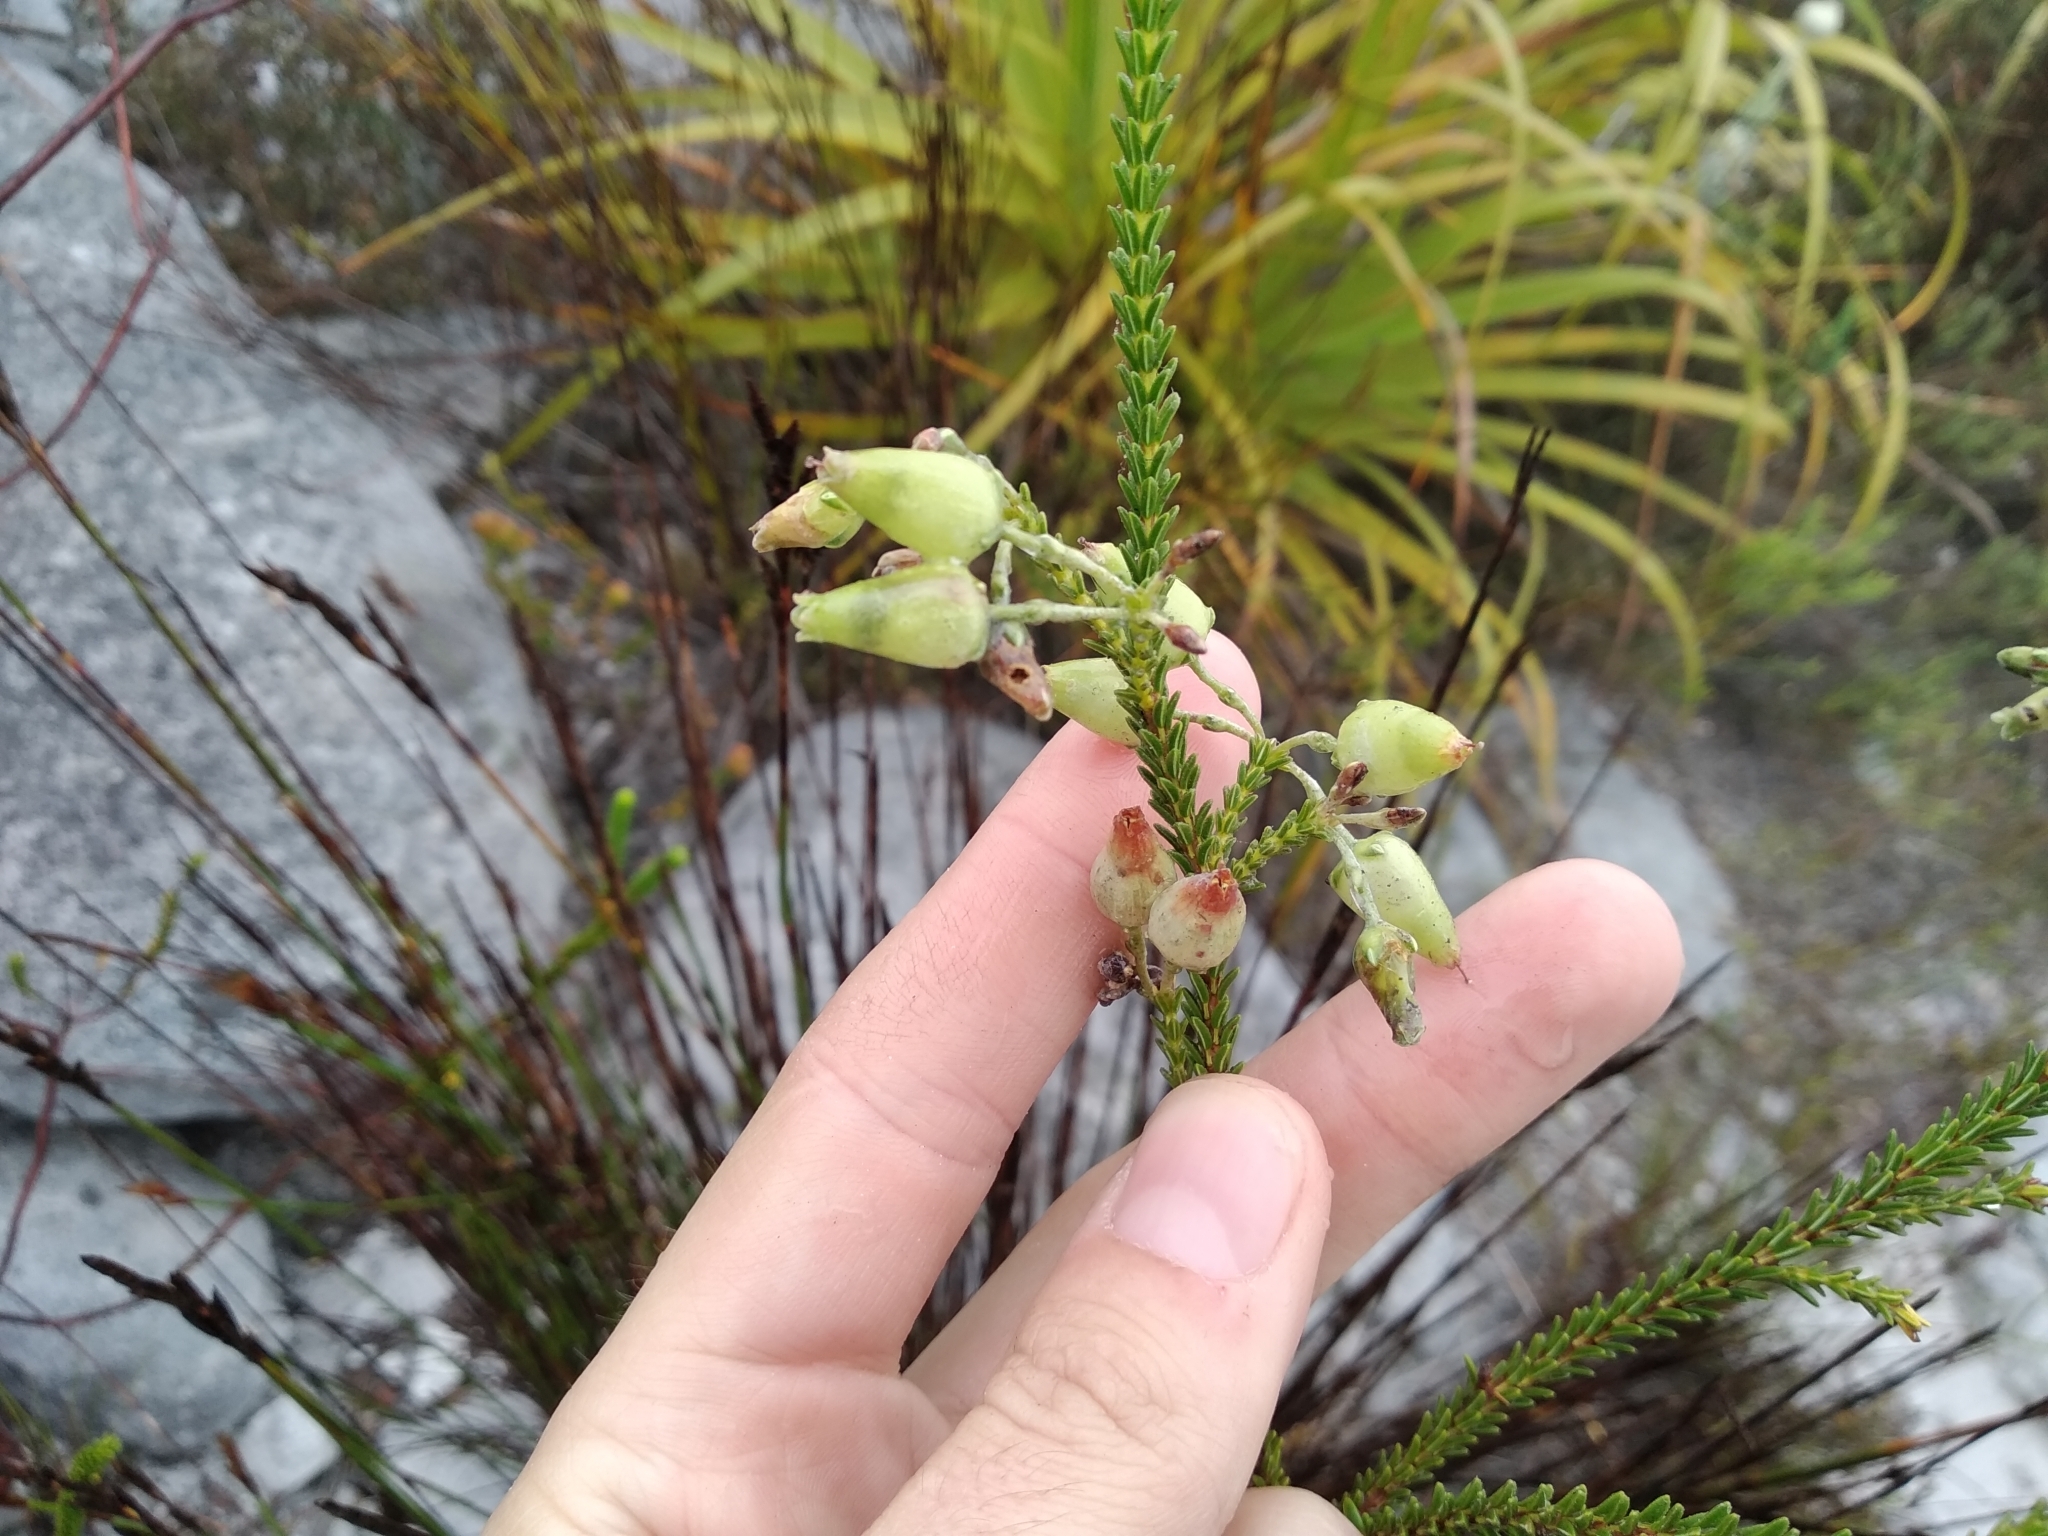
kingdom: Plantae
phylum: Tracheophyta
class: Magnoliopsida
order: Ericales
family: Ericaceae
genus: Erica
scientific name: Erica urna-viridis
